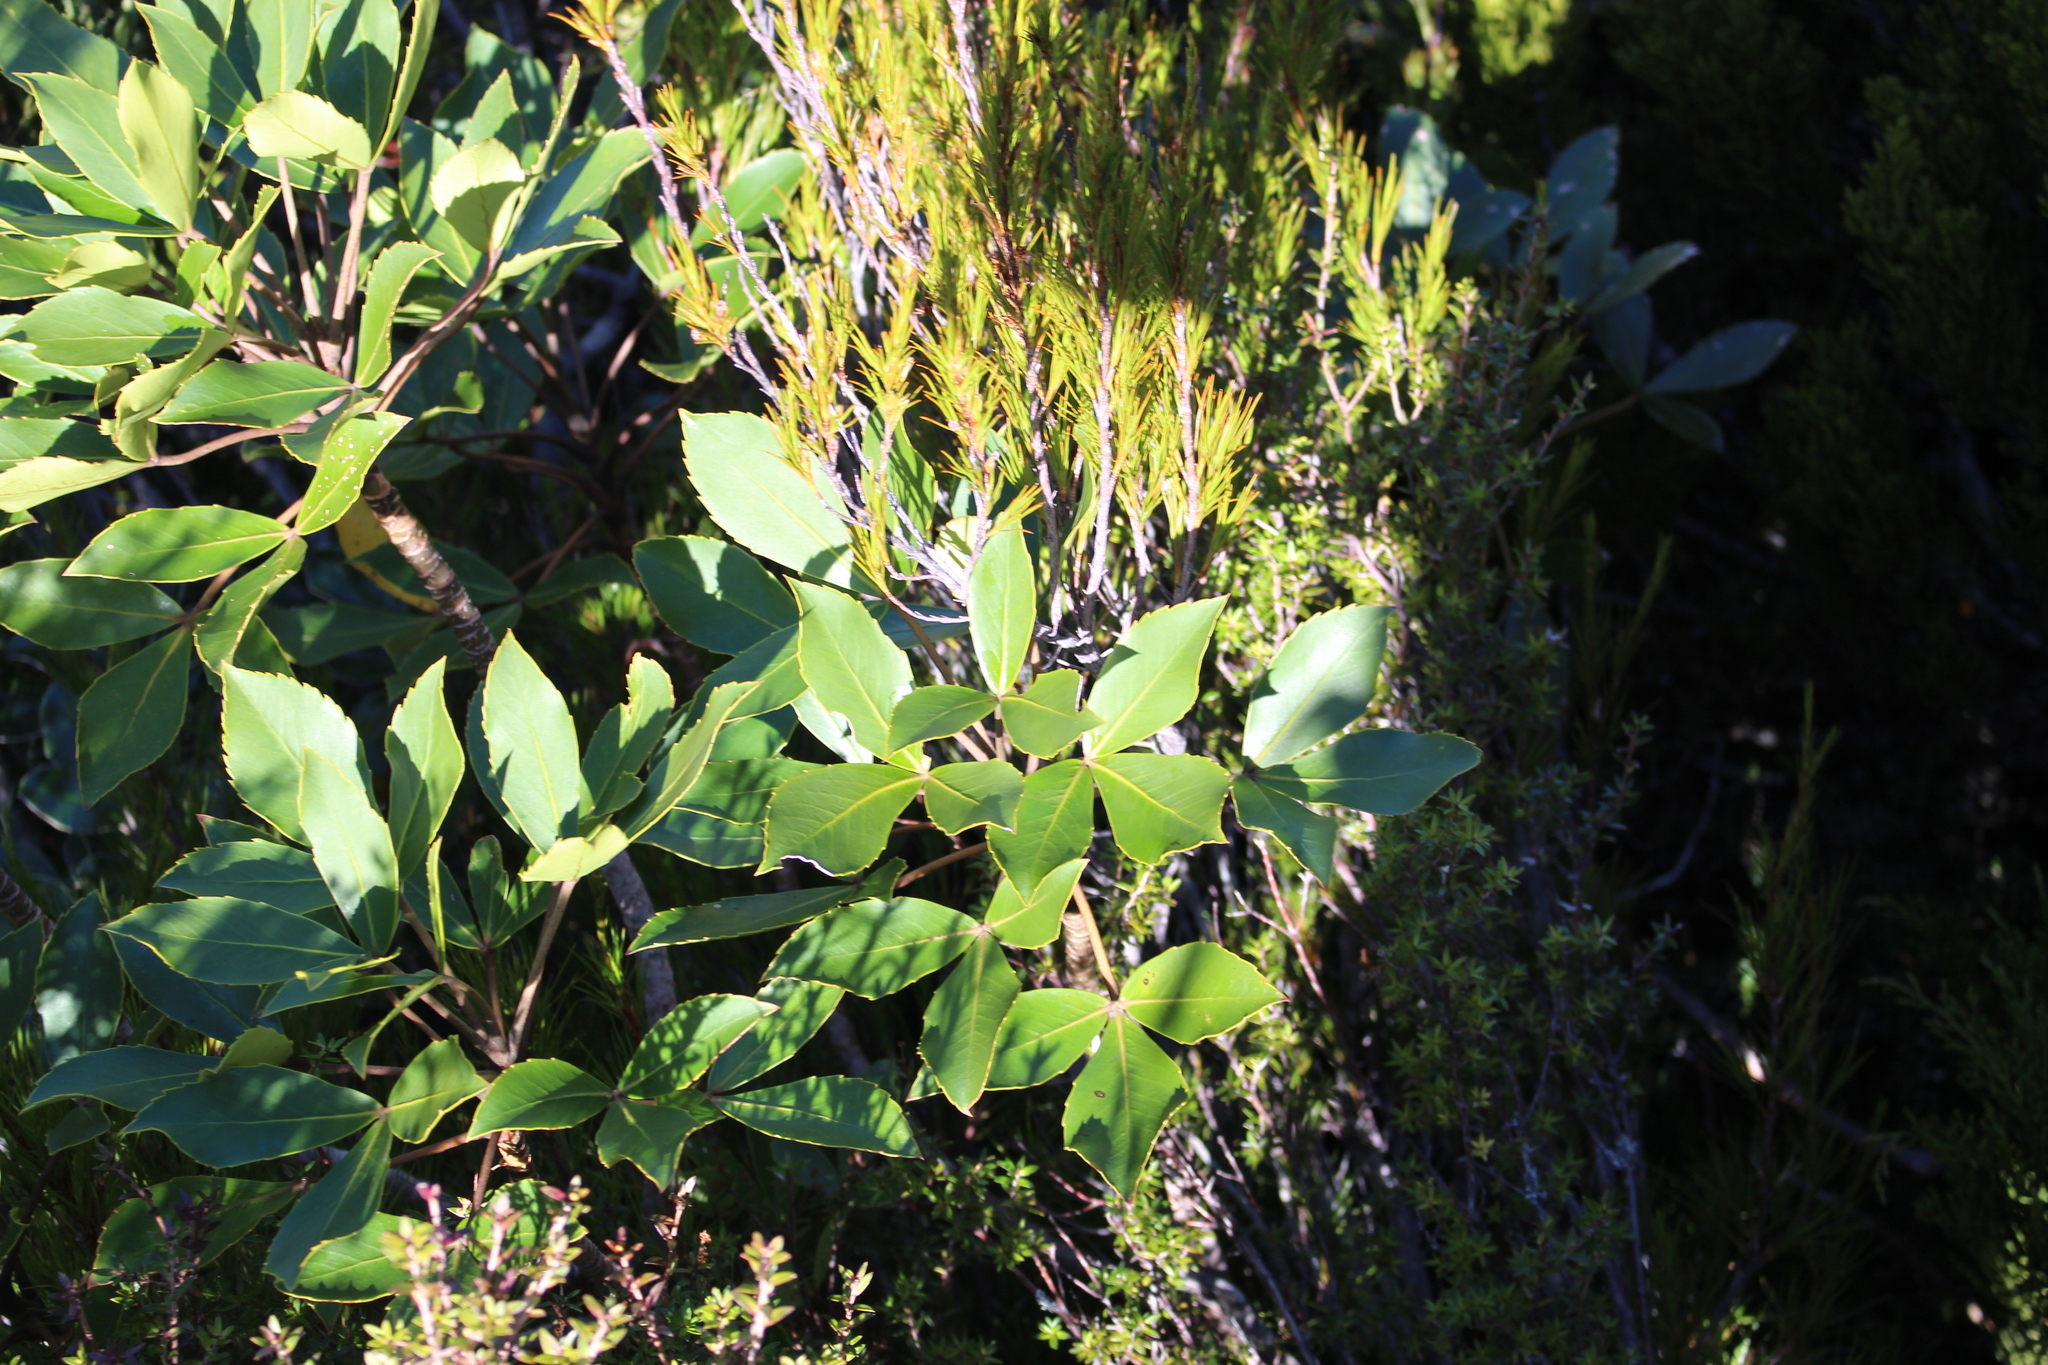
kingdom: Plantae
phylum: Tracheophyta
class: Magnoliopsida
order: Apiales
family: Araliaceae
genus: Neopanax
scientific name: Neopanax colensoi
